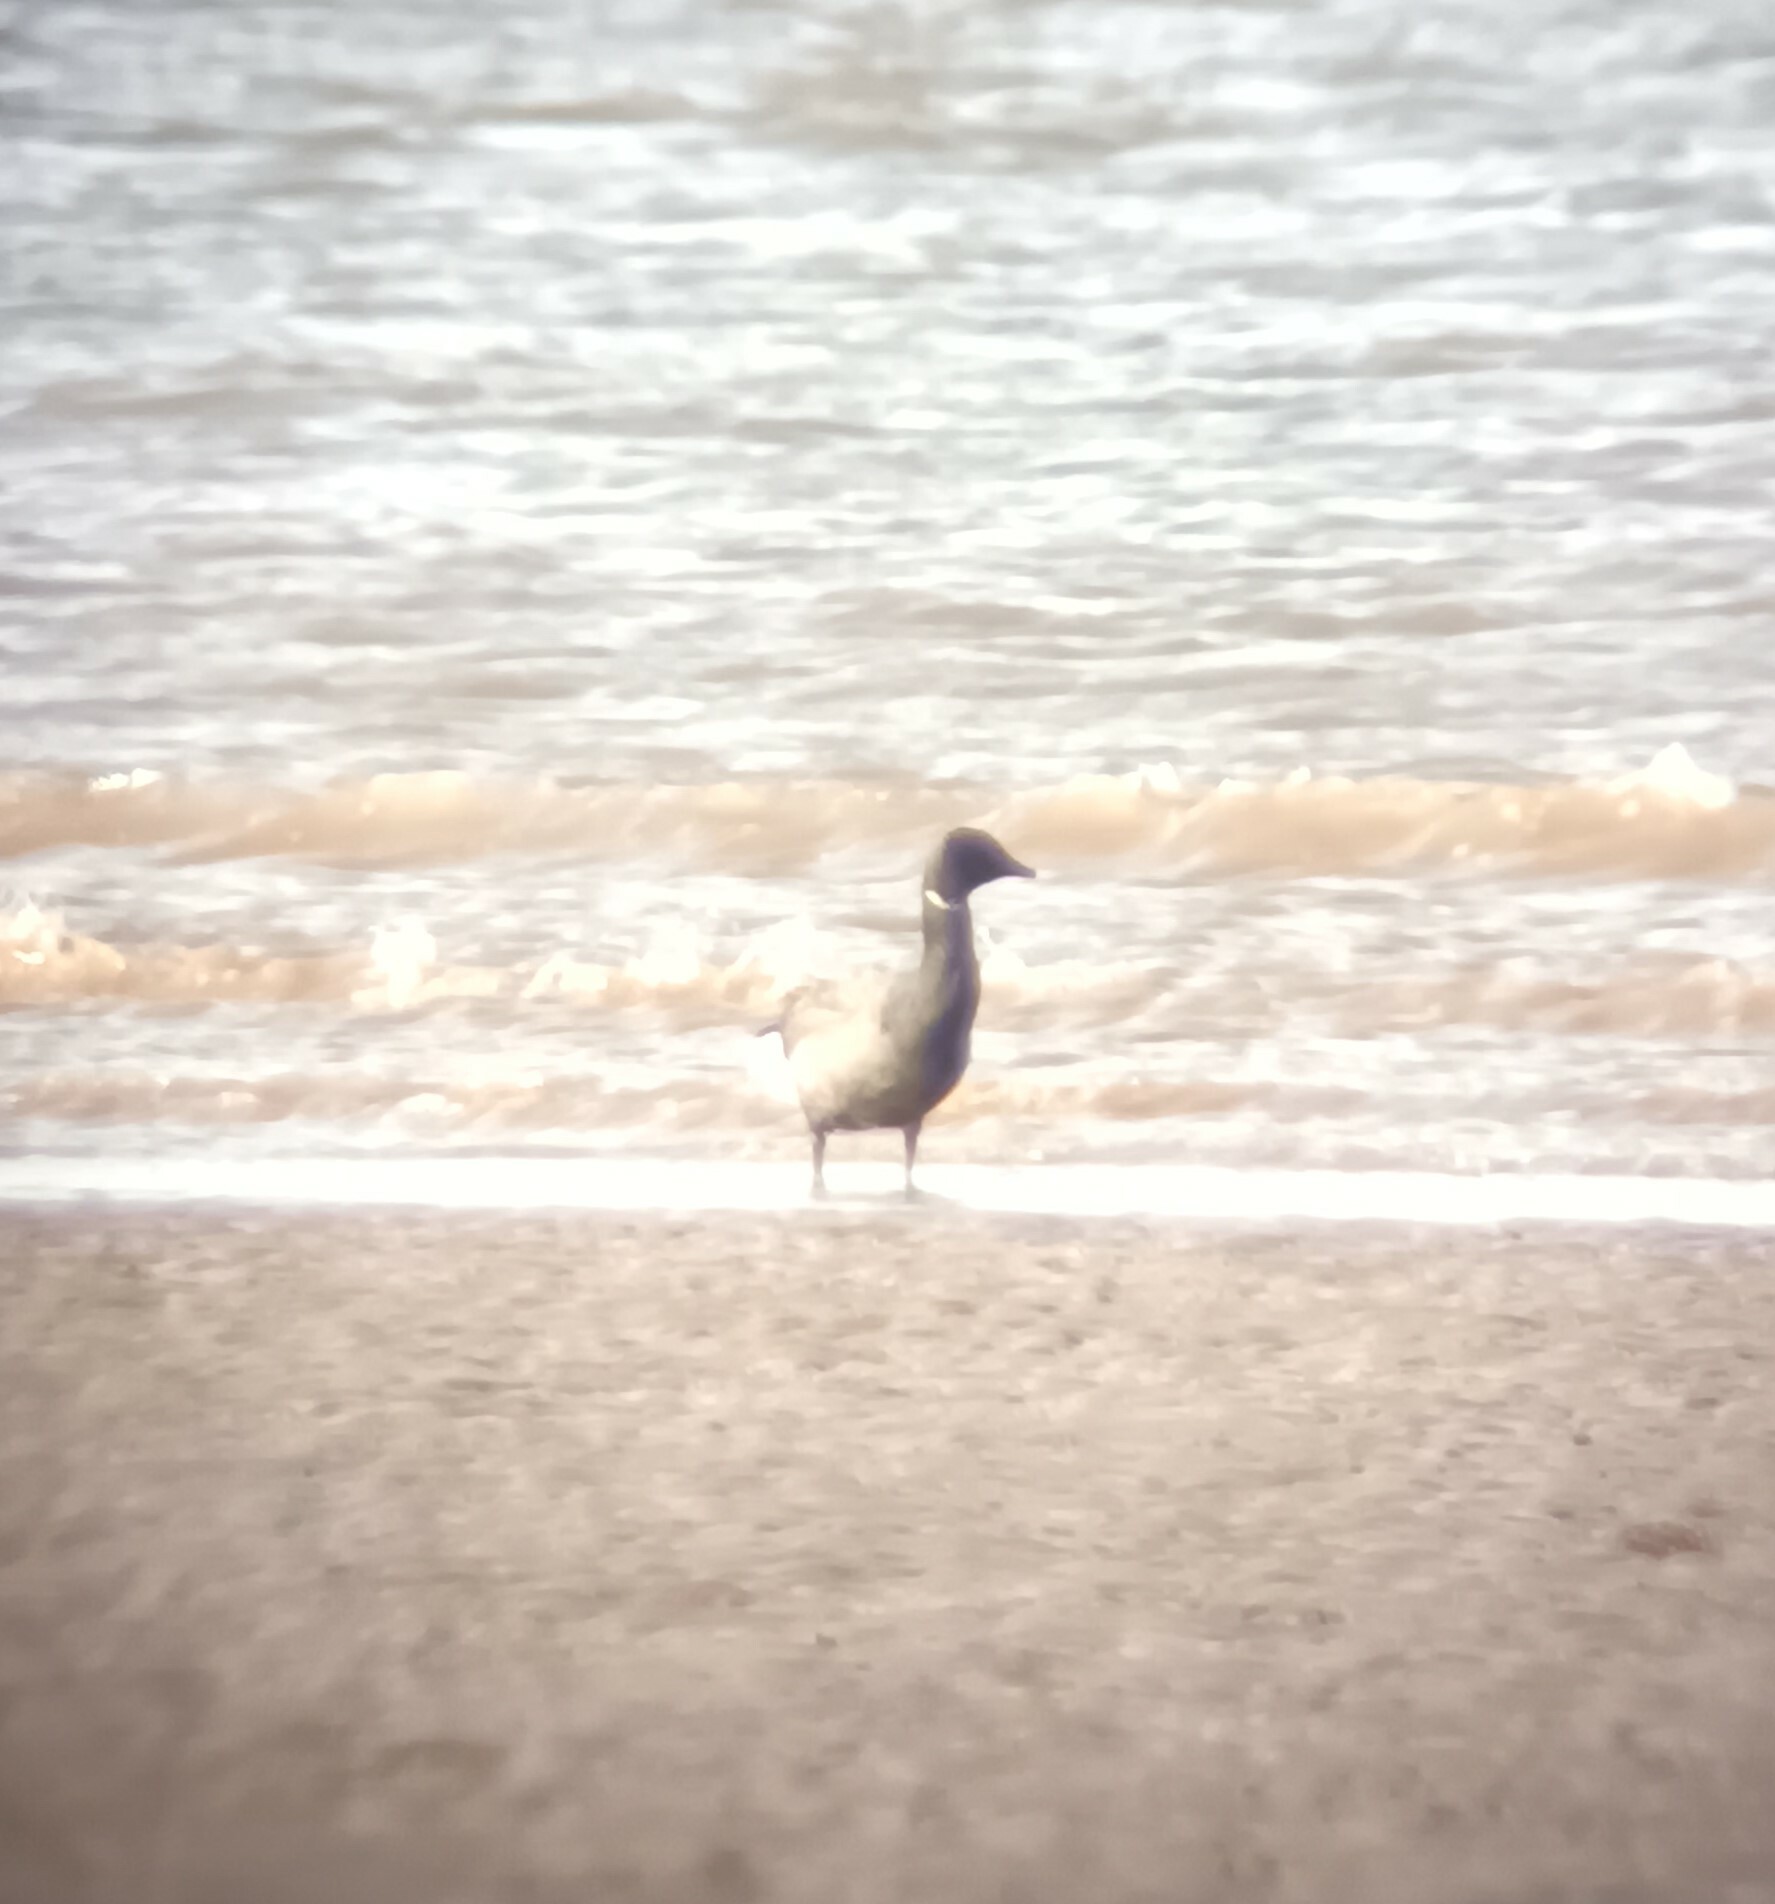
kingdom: Animalia
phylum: Chordata
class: Aves
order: Anseriformes
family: Anatidae
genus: Branta
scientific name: Branta bernicla
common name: Brant goose
